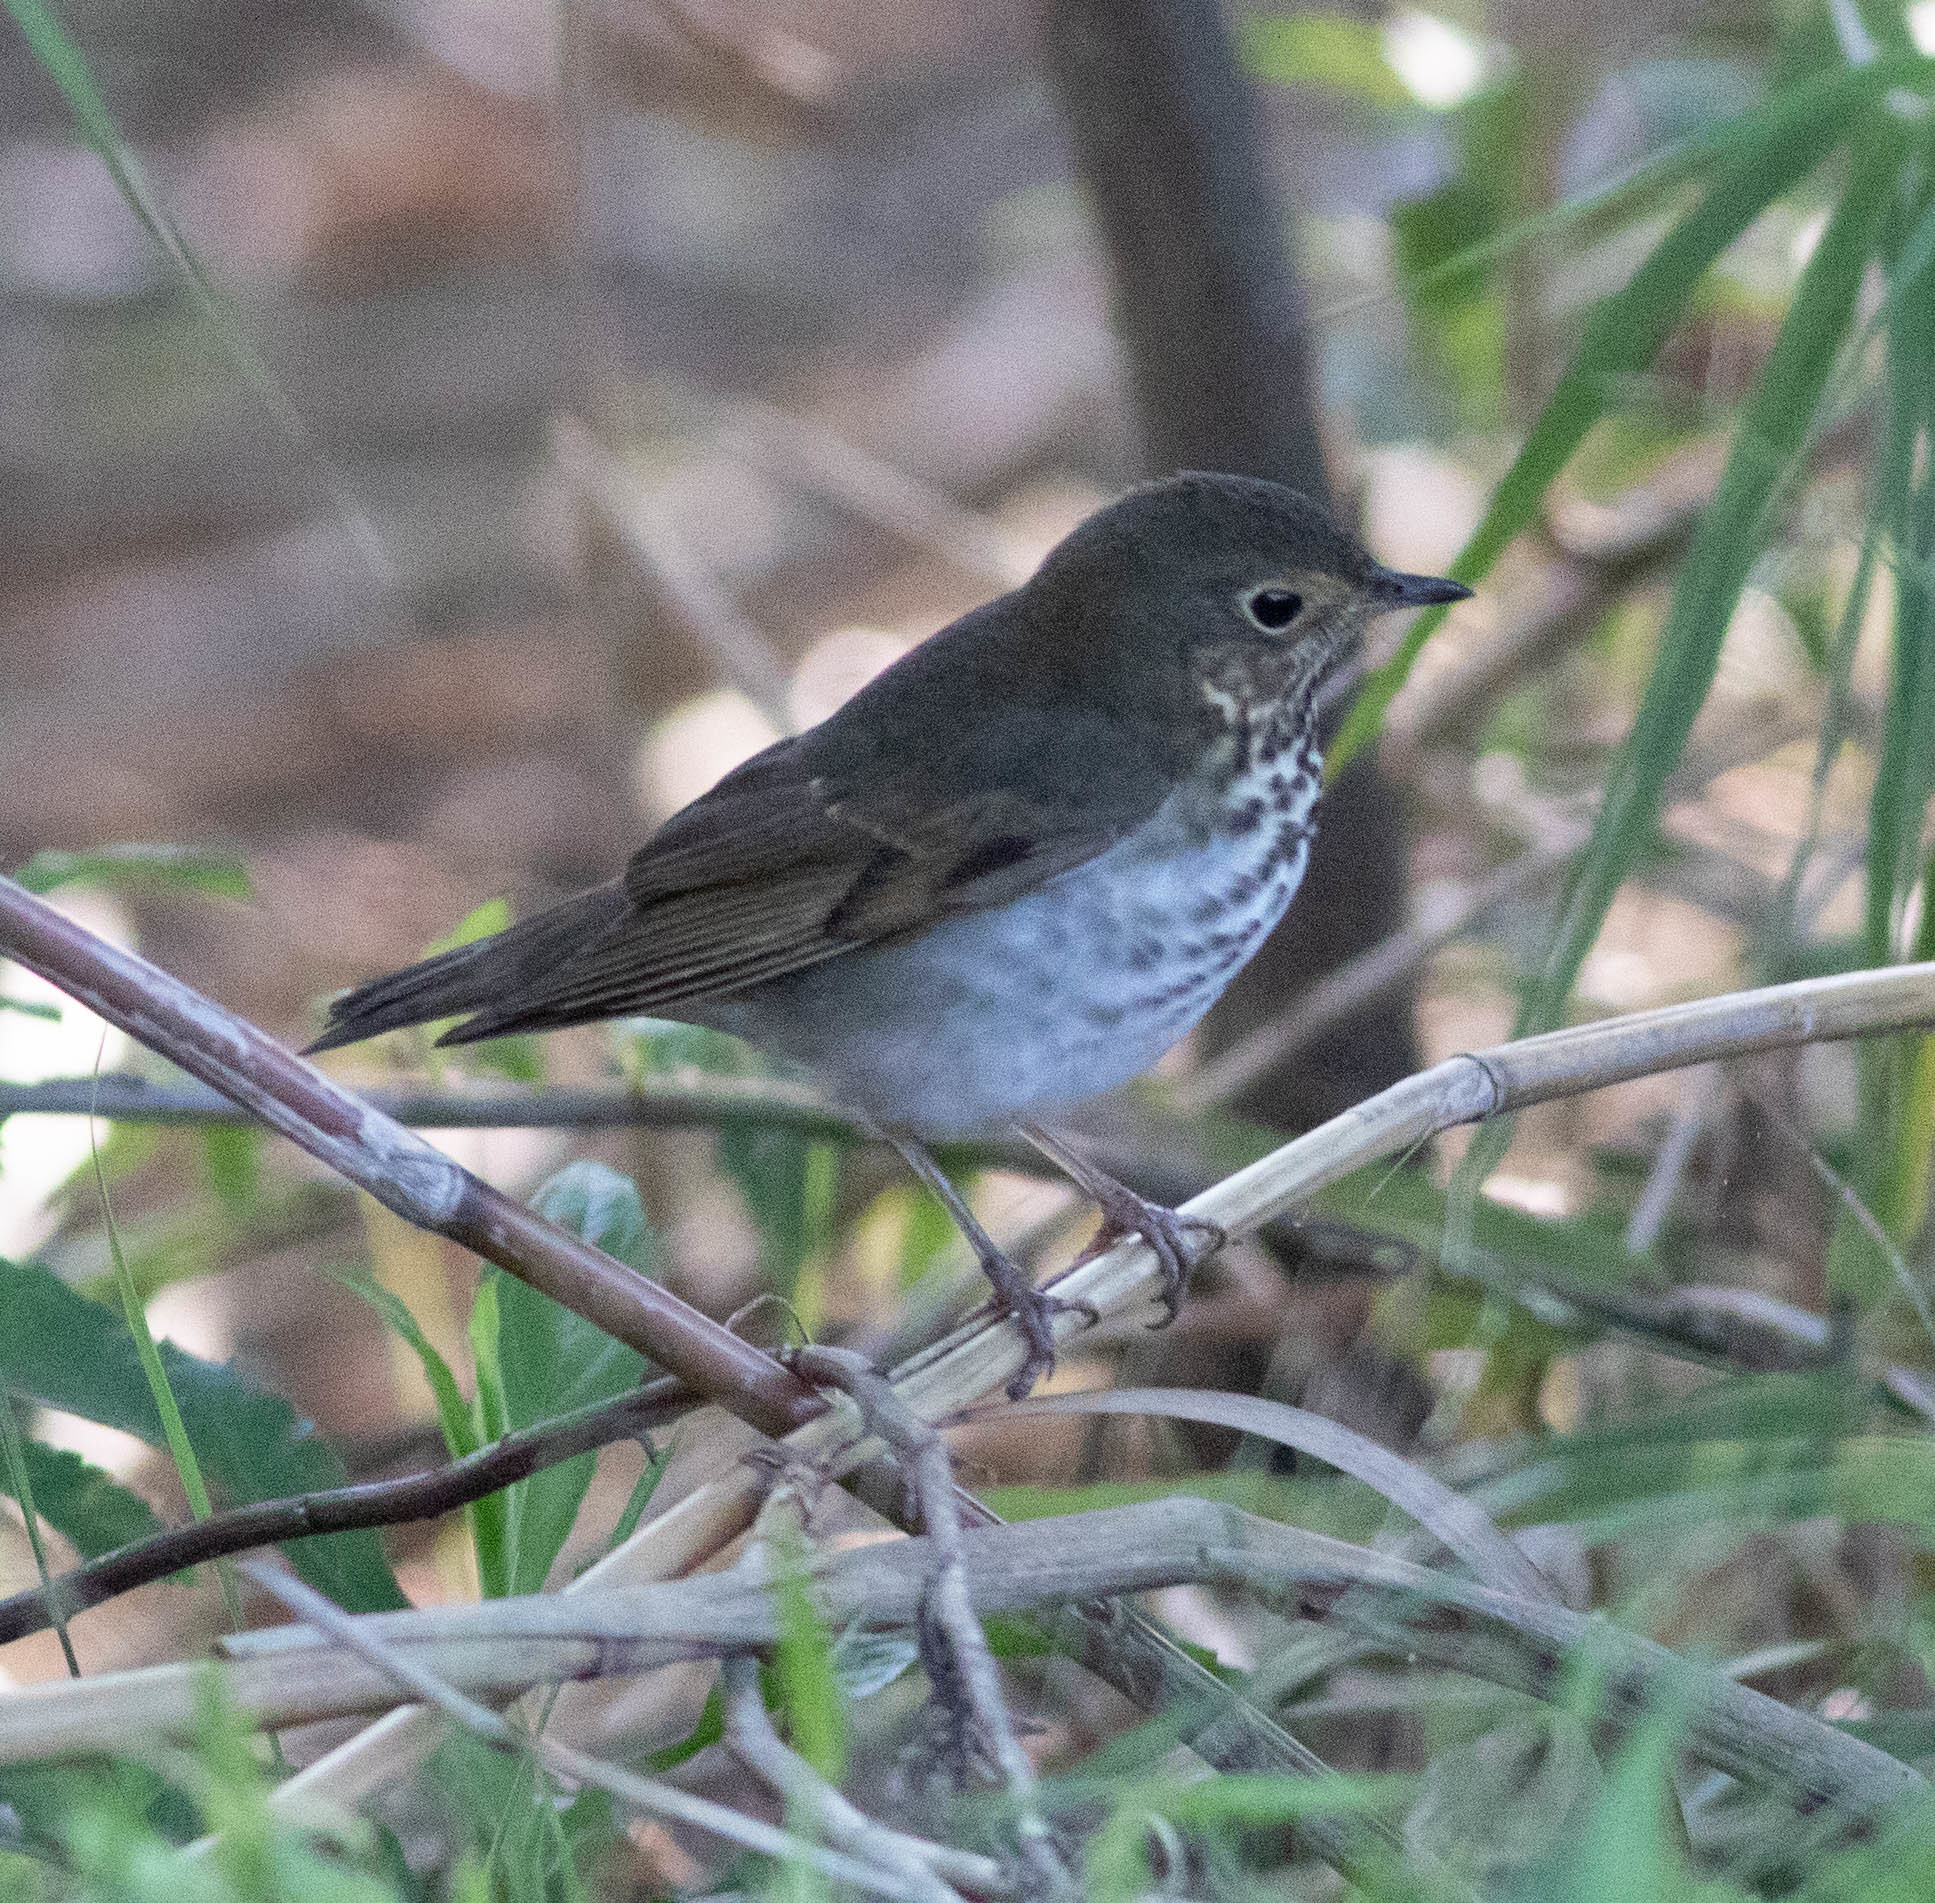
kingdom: Animalia
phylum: Chordata
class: Aves
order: Passeriformes
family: Turdidae
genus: Catharus
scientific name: Catharus ustulatus
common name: Swainson's thrush
